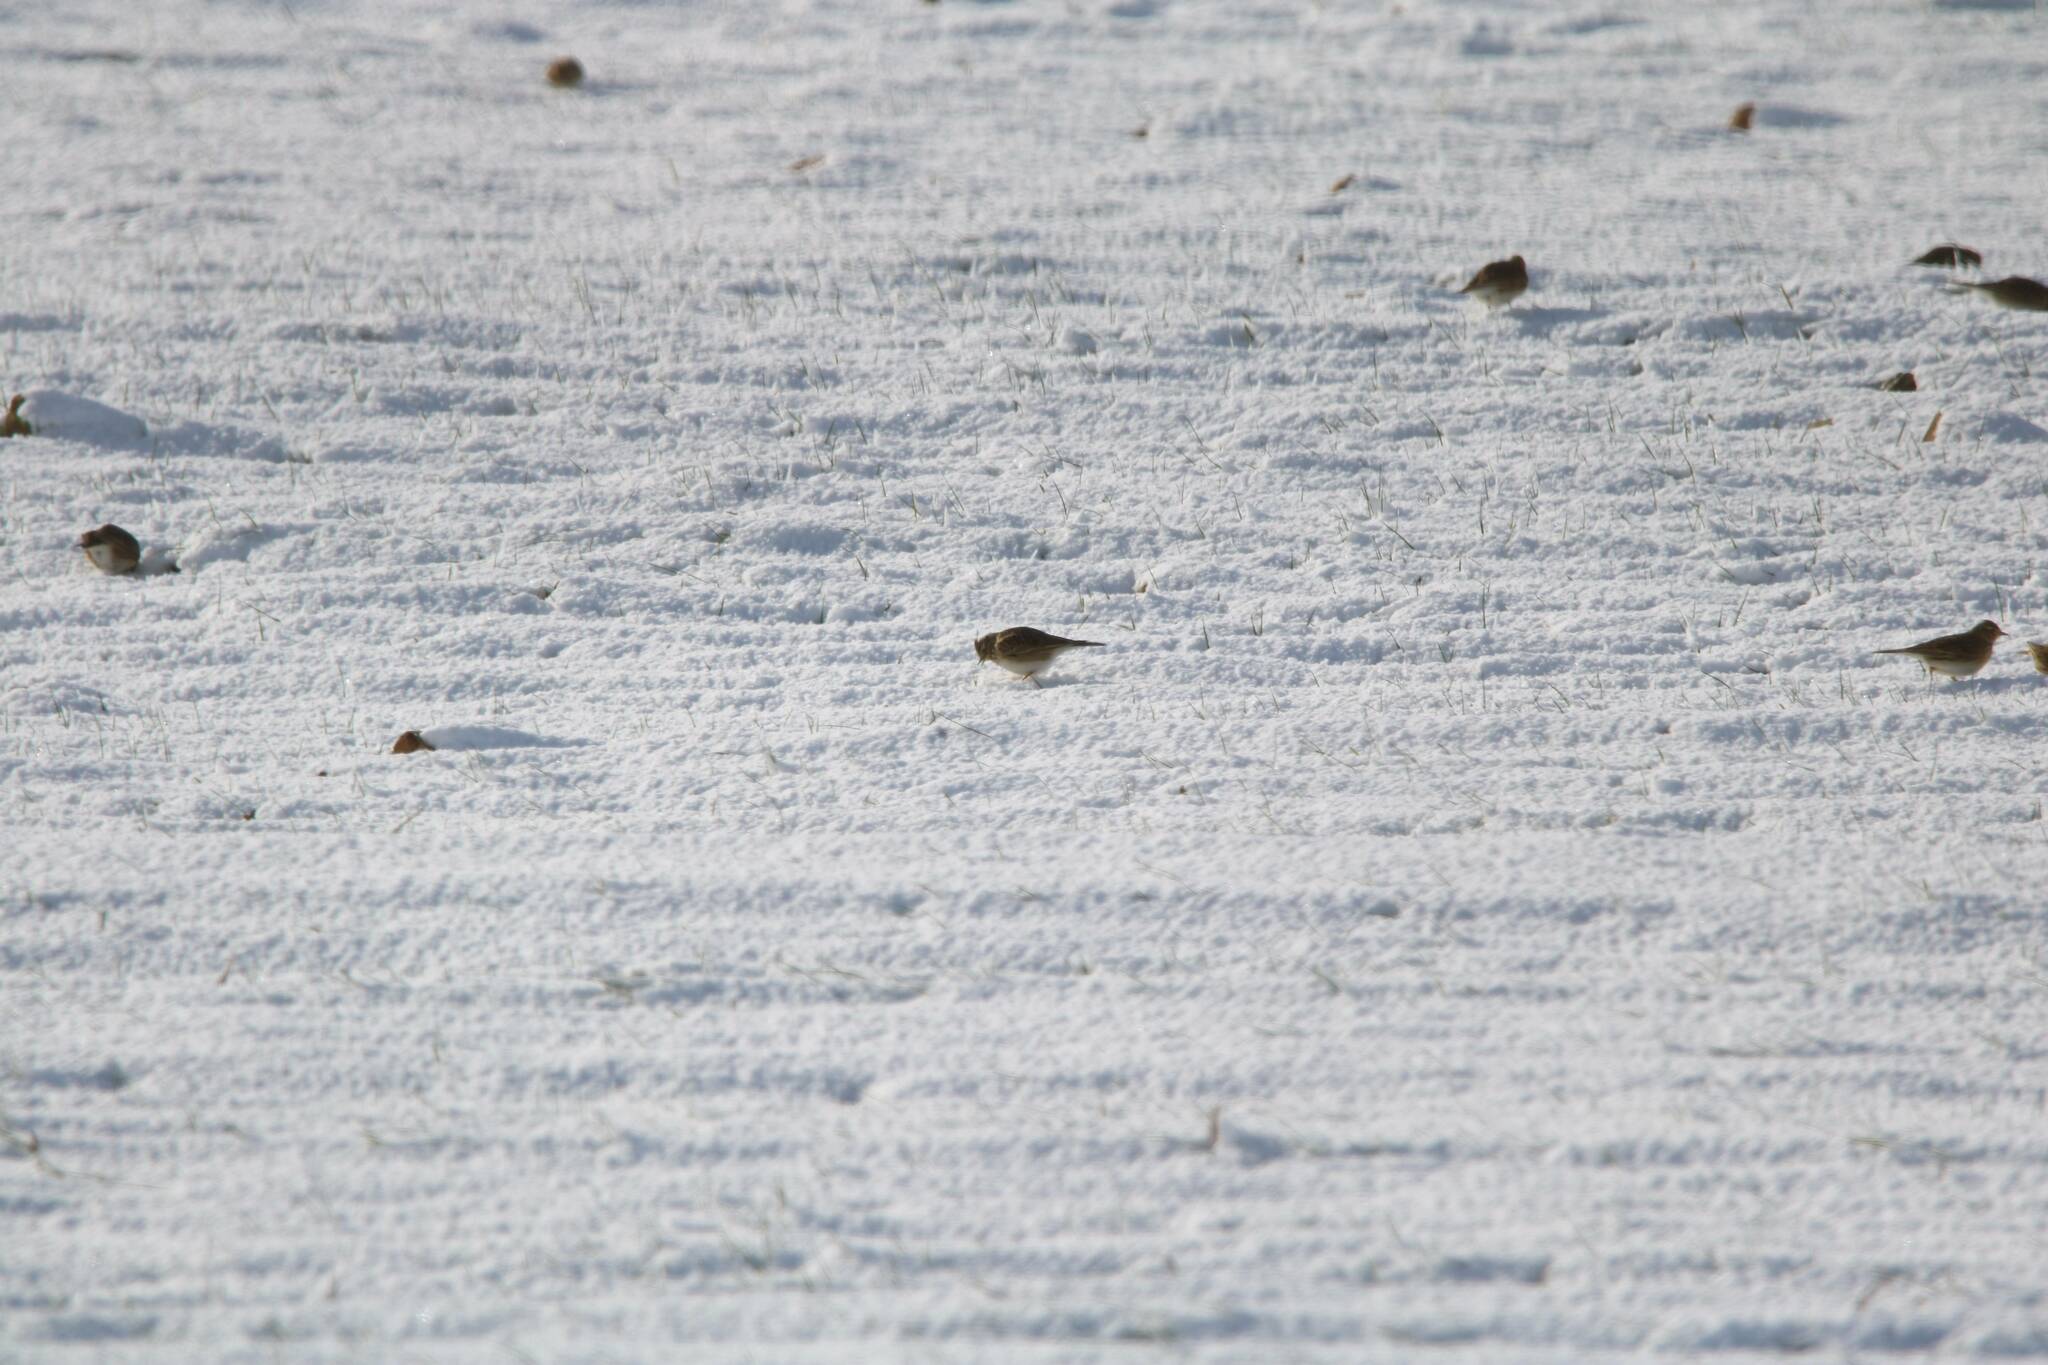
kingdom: Animalia
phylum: Chordata
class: Aves
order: Passeriformes
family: Alaudidae
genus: Alauda
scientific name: Alauda arvensis
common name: Eurasian skylark
